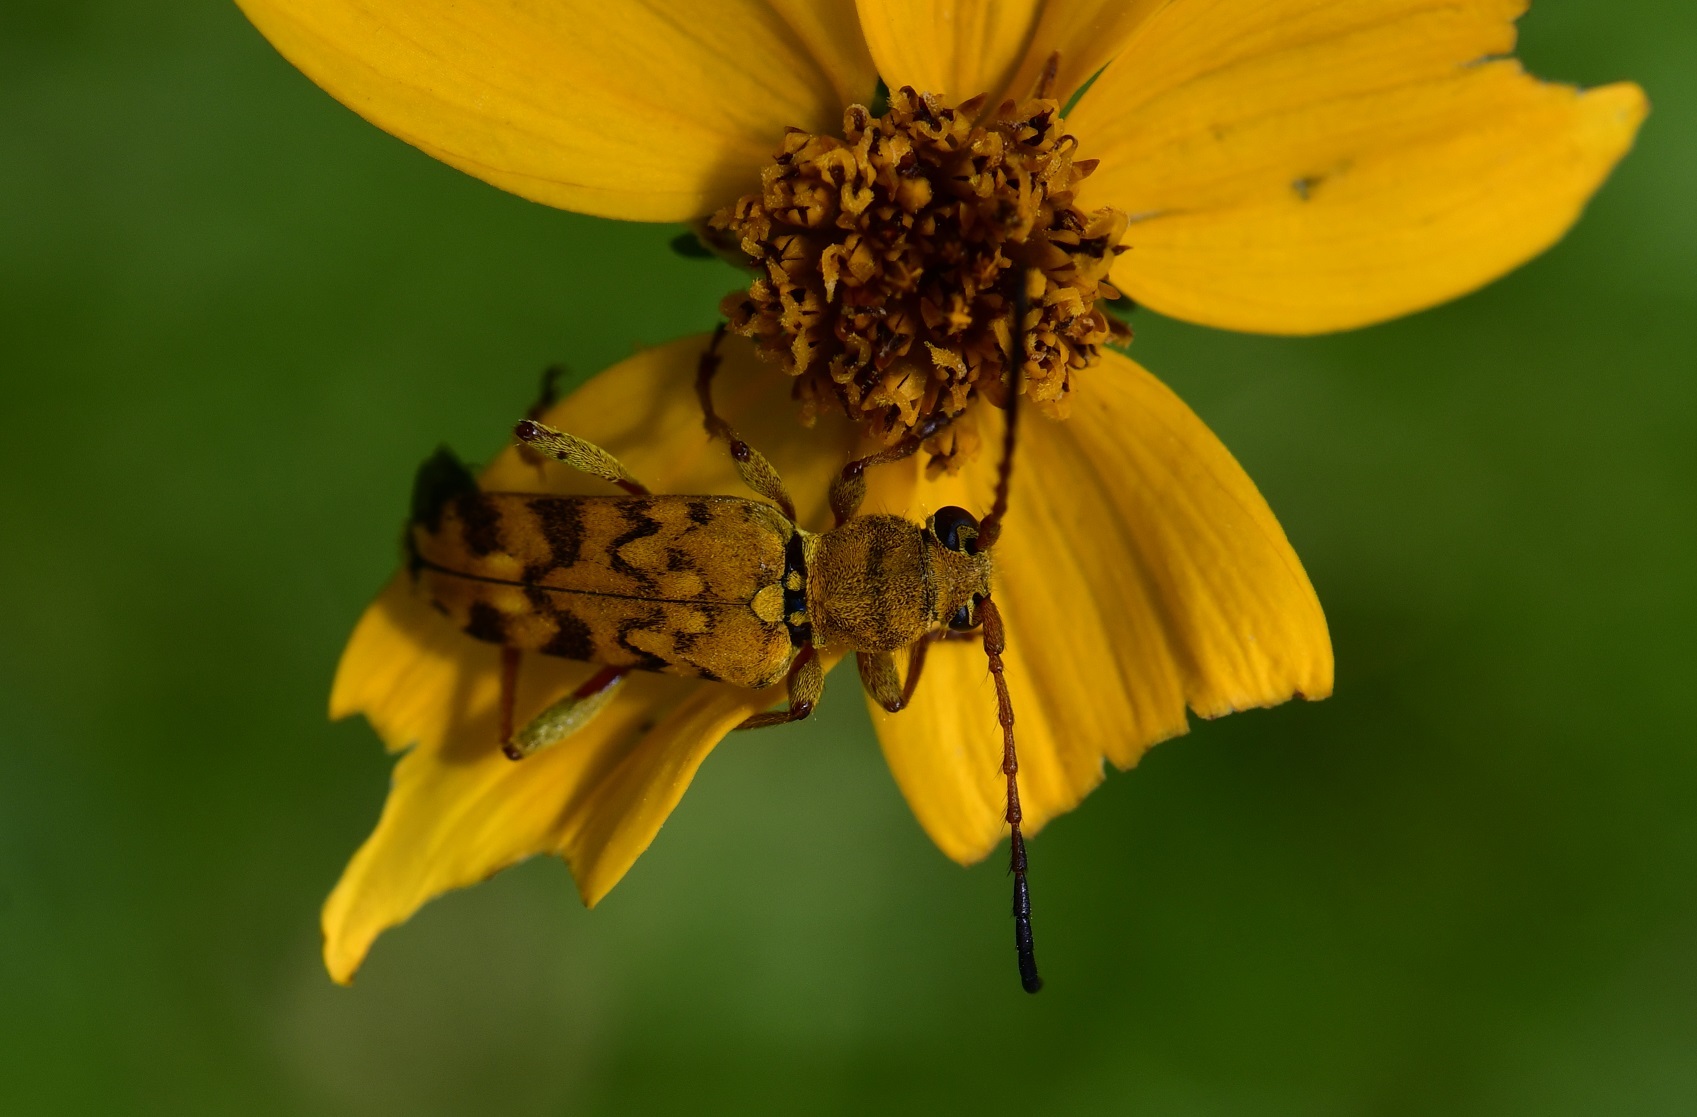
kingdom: Animalia
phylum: Arthropoda
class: Insecta
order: Coleoptera
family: Cerambycidae
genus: Ochraethes
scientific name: Ochraethes pollinosus
